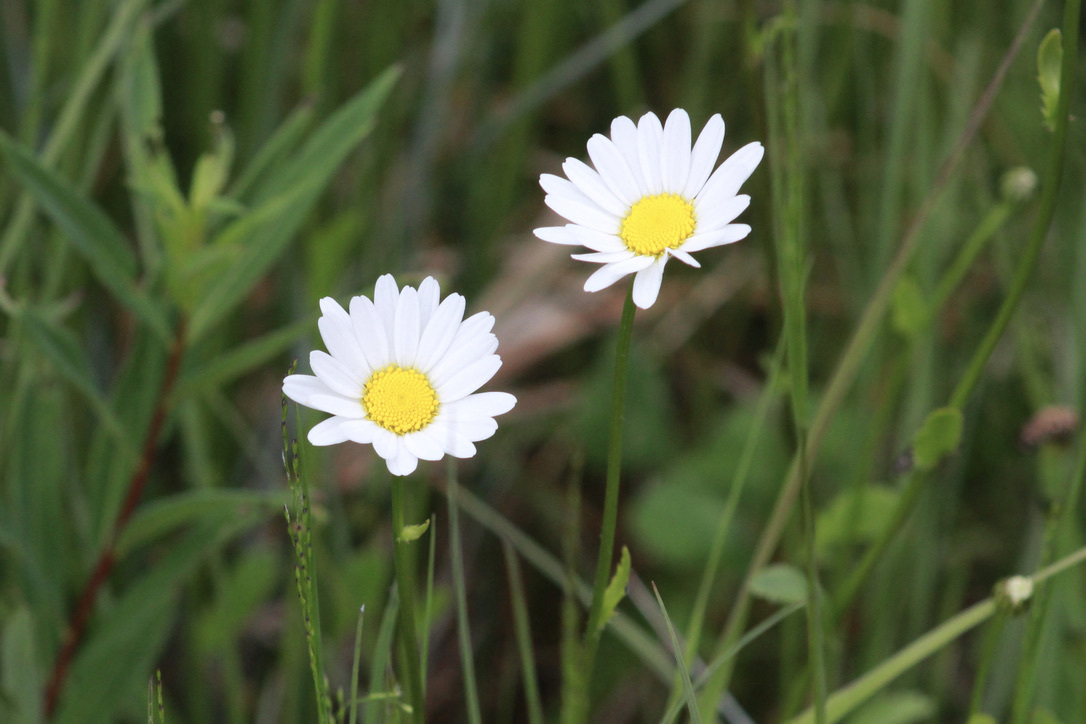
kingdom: Plantae
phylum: Tracheophyta
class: Magnoliopsida
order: Asterales
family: Asteraceae
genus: Leucanthemum
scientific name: Leucanthemum vulgare
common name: Oxeye daisy
